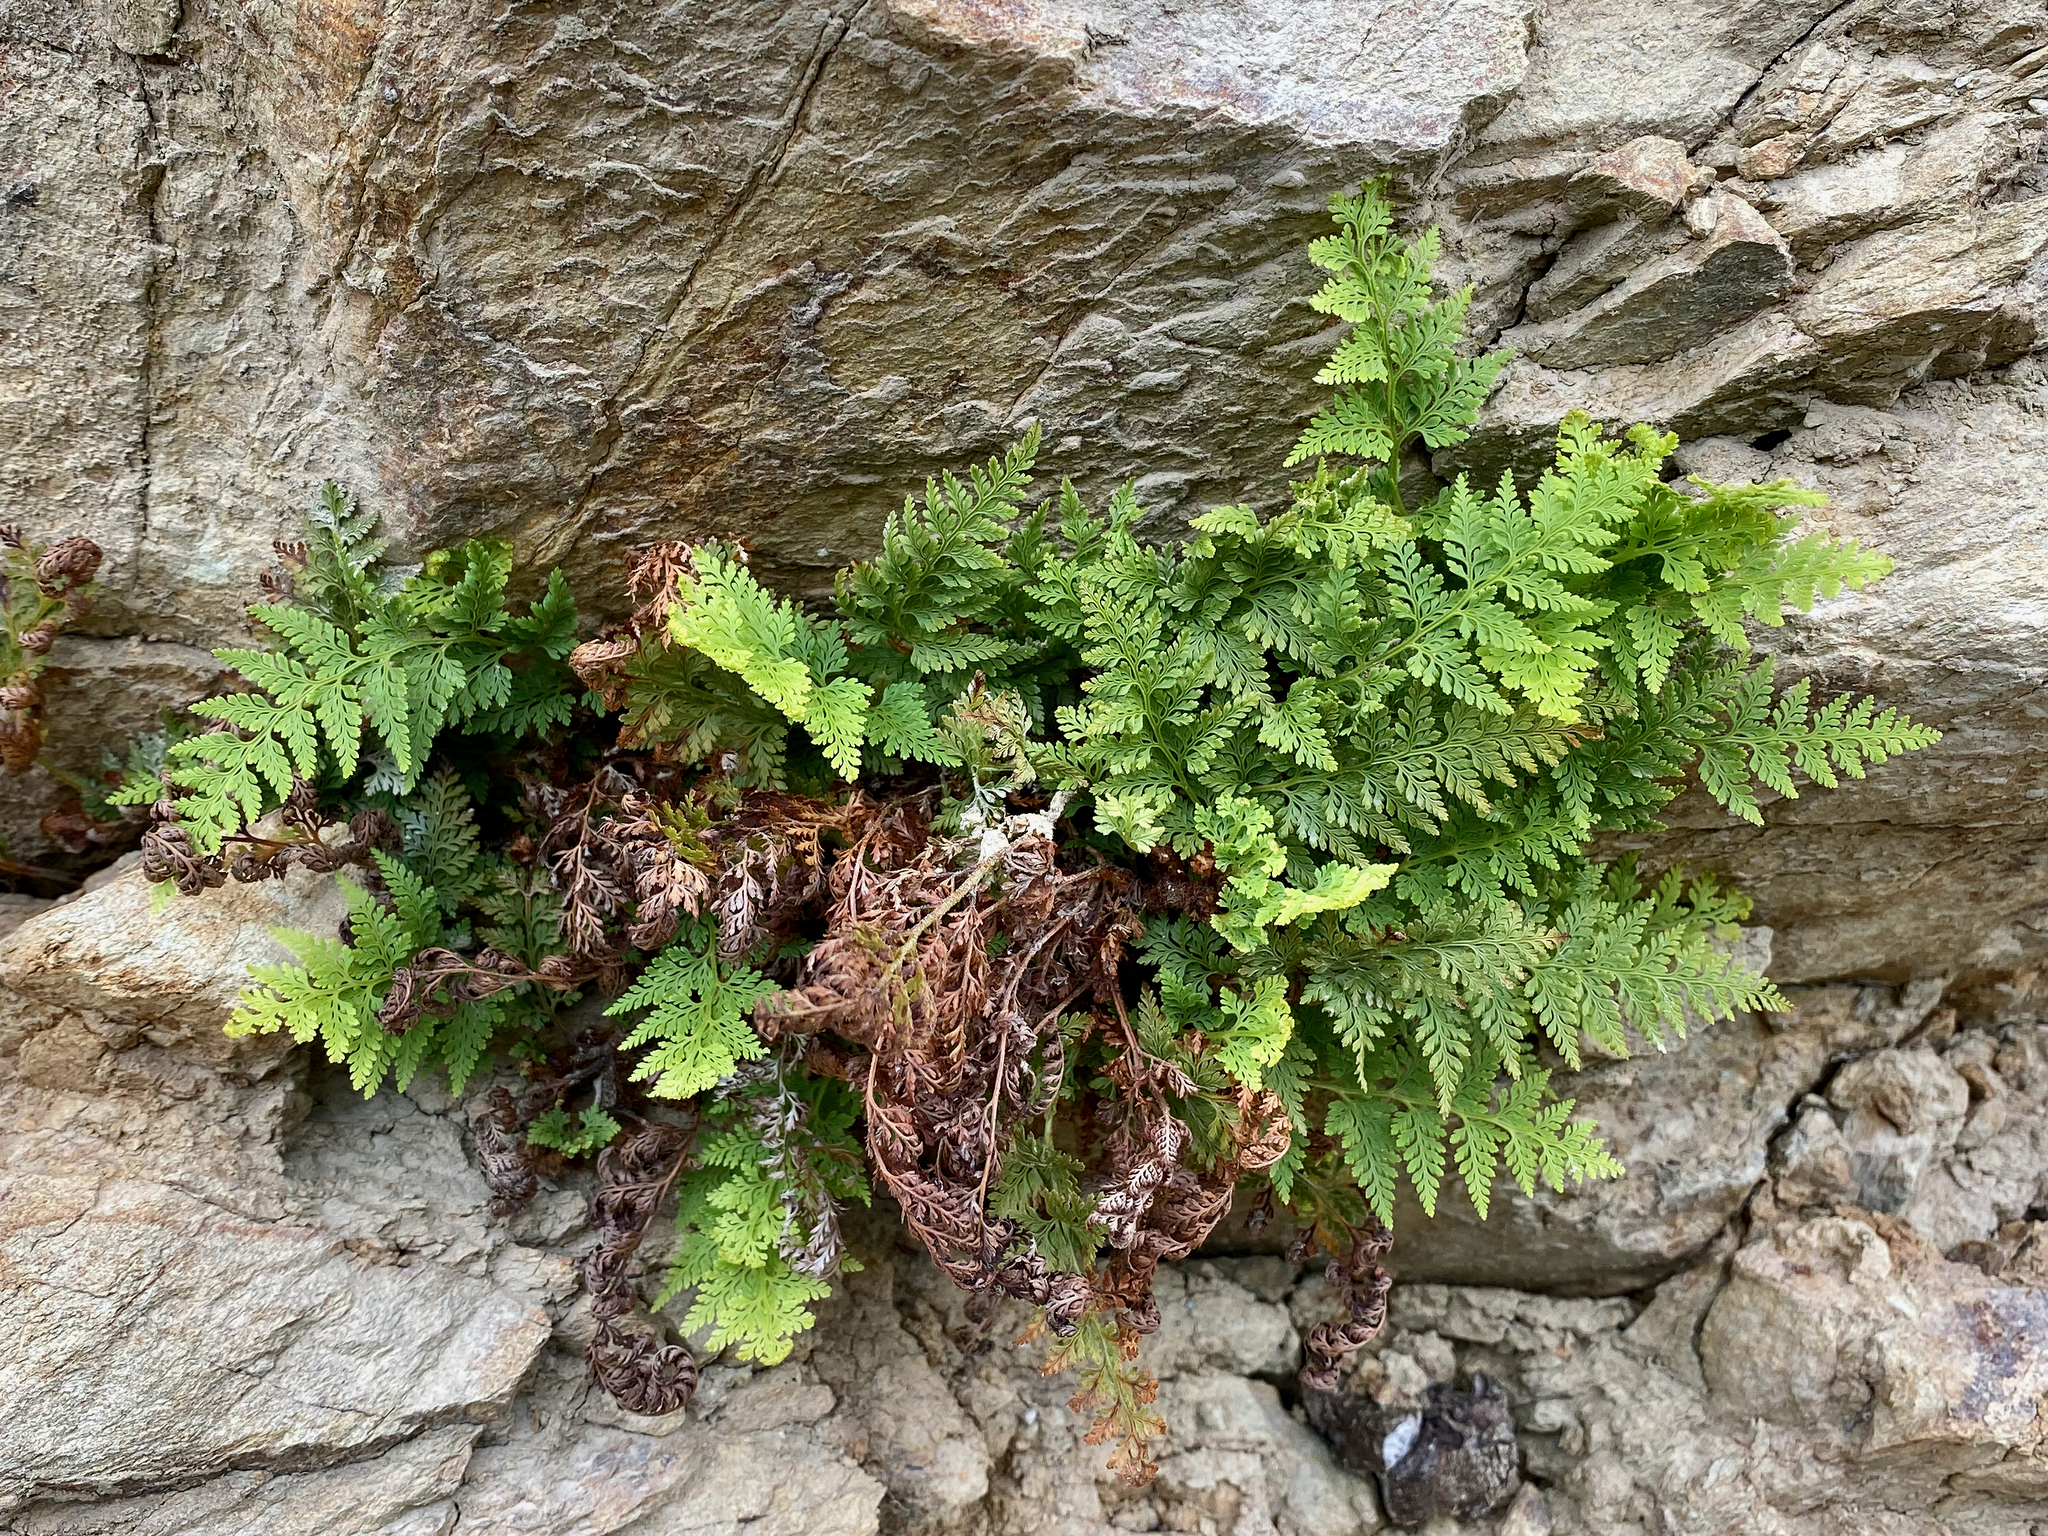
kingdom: Plantae
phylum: Tracheophyta
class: Polypodiopsida
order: Polypodiales
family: Dennstaedtiaceae
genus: Paesia
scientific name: Paesia scaberula
